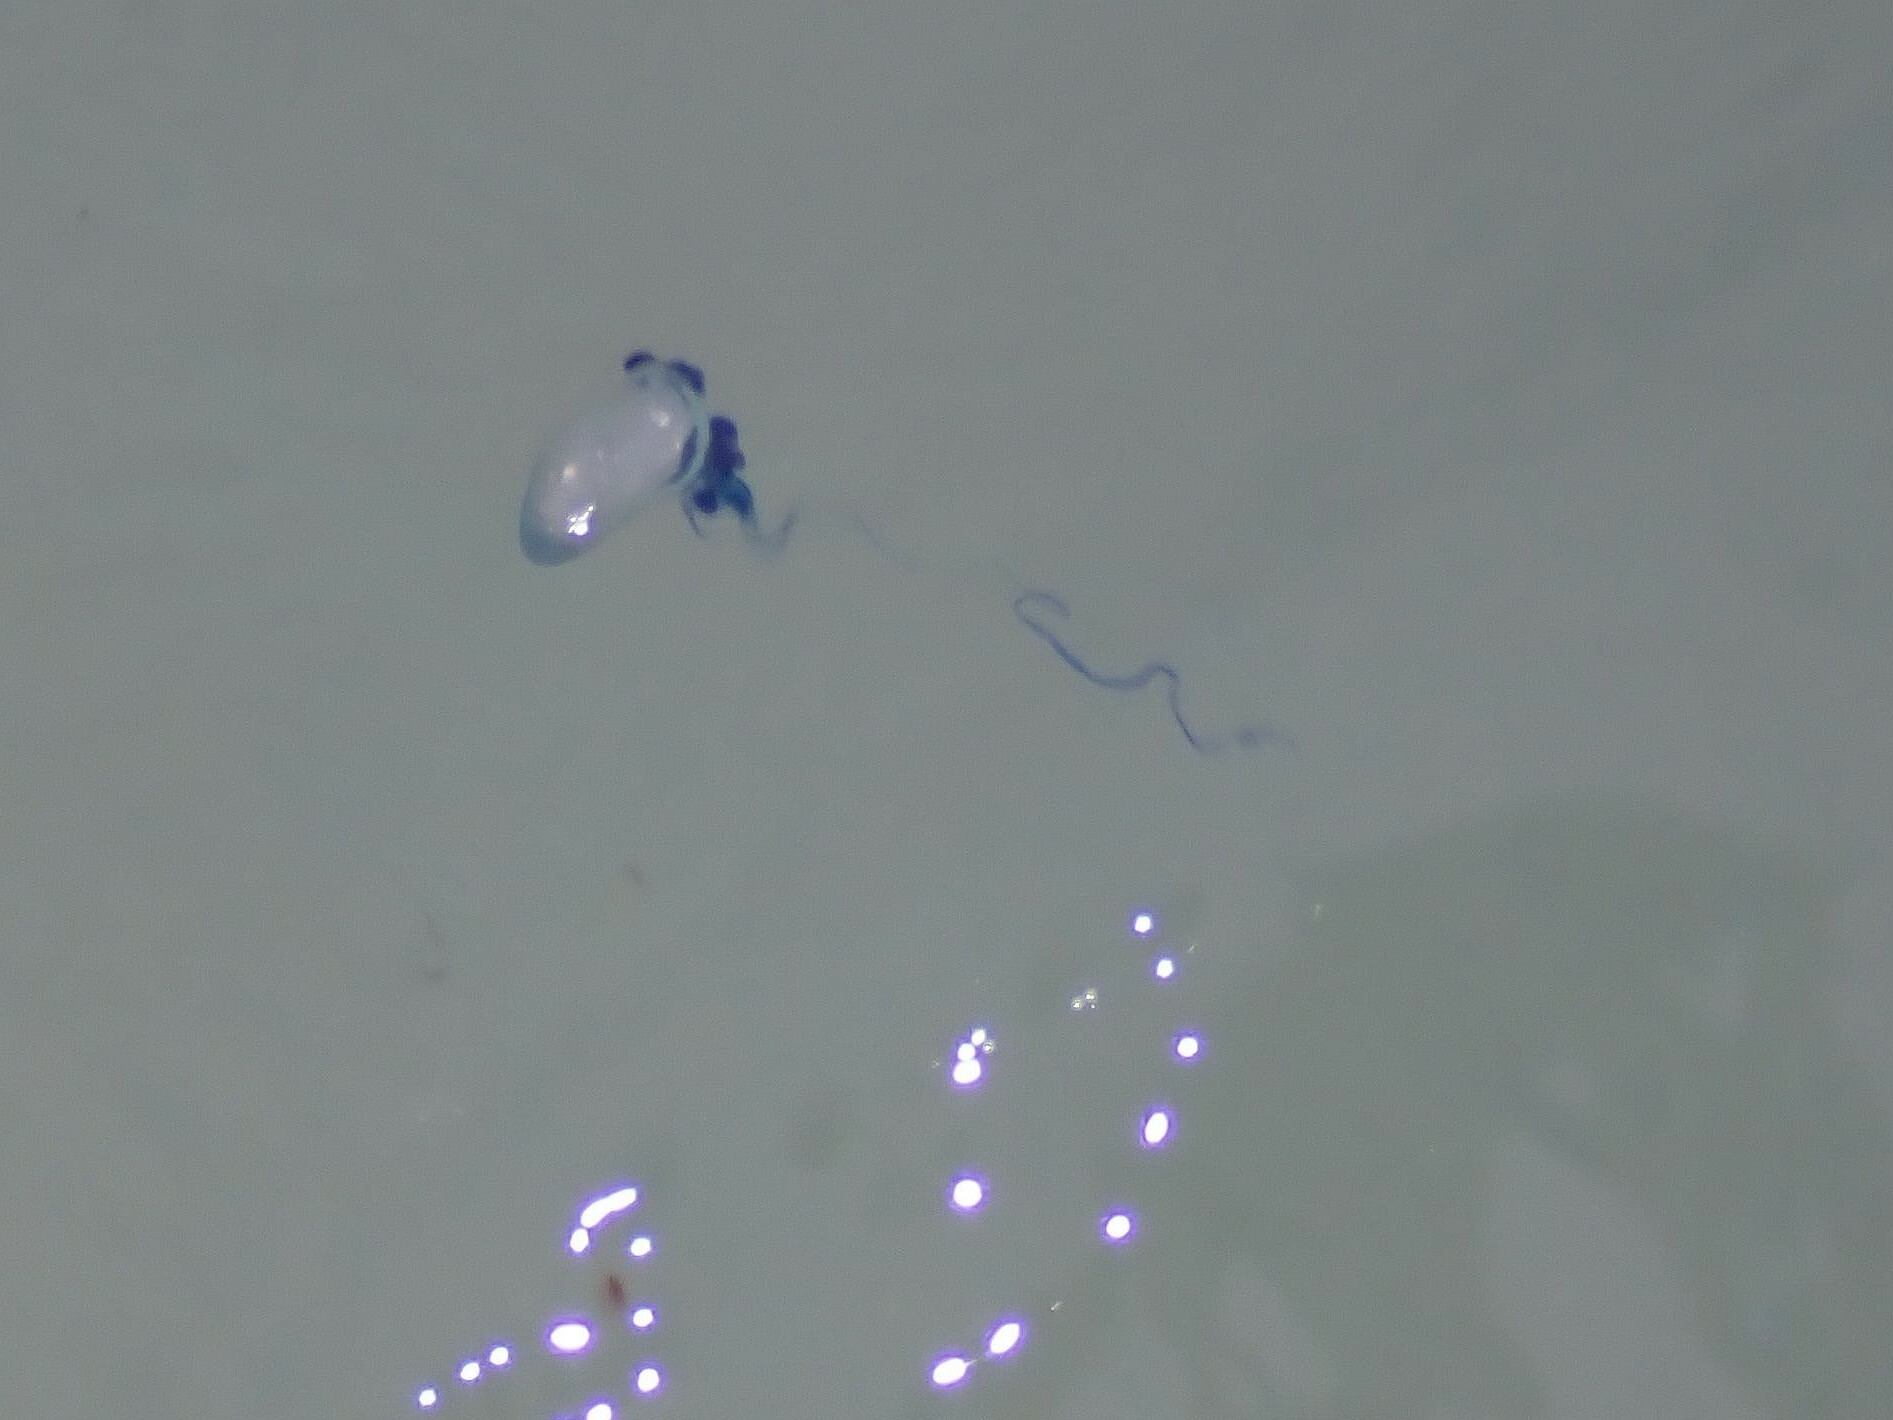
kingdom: Animalia
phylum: Cnidaria
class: Hydrozoa
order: Siphonophorae
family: Physaliidae
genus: Physalia
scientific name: Physalia physalis
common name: Portuguese man-of-war
